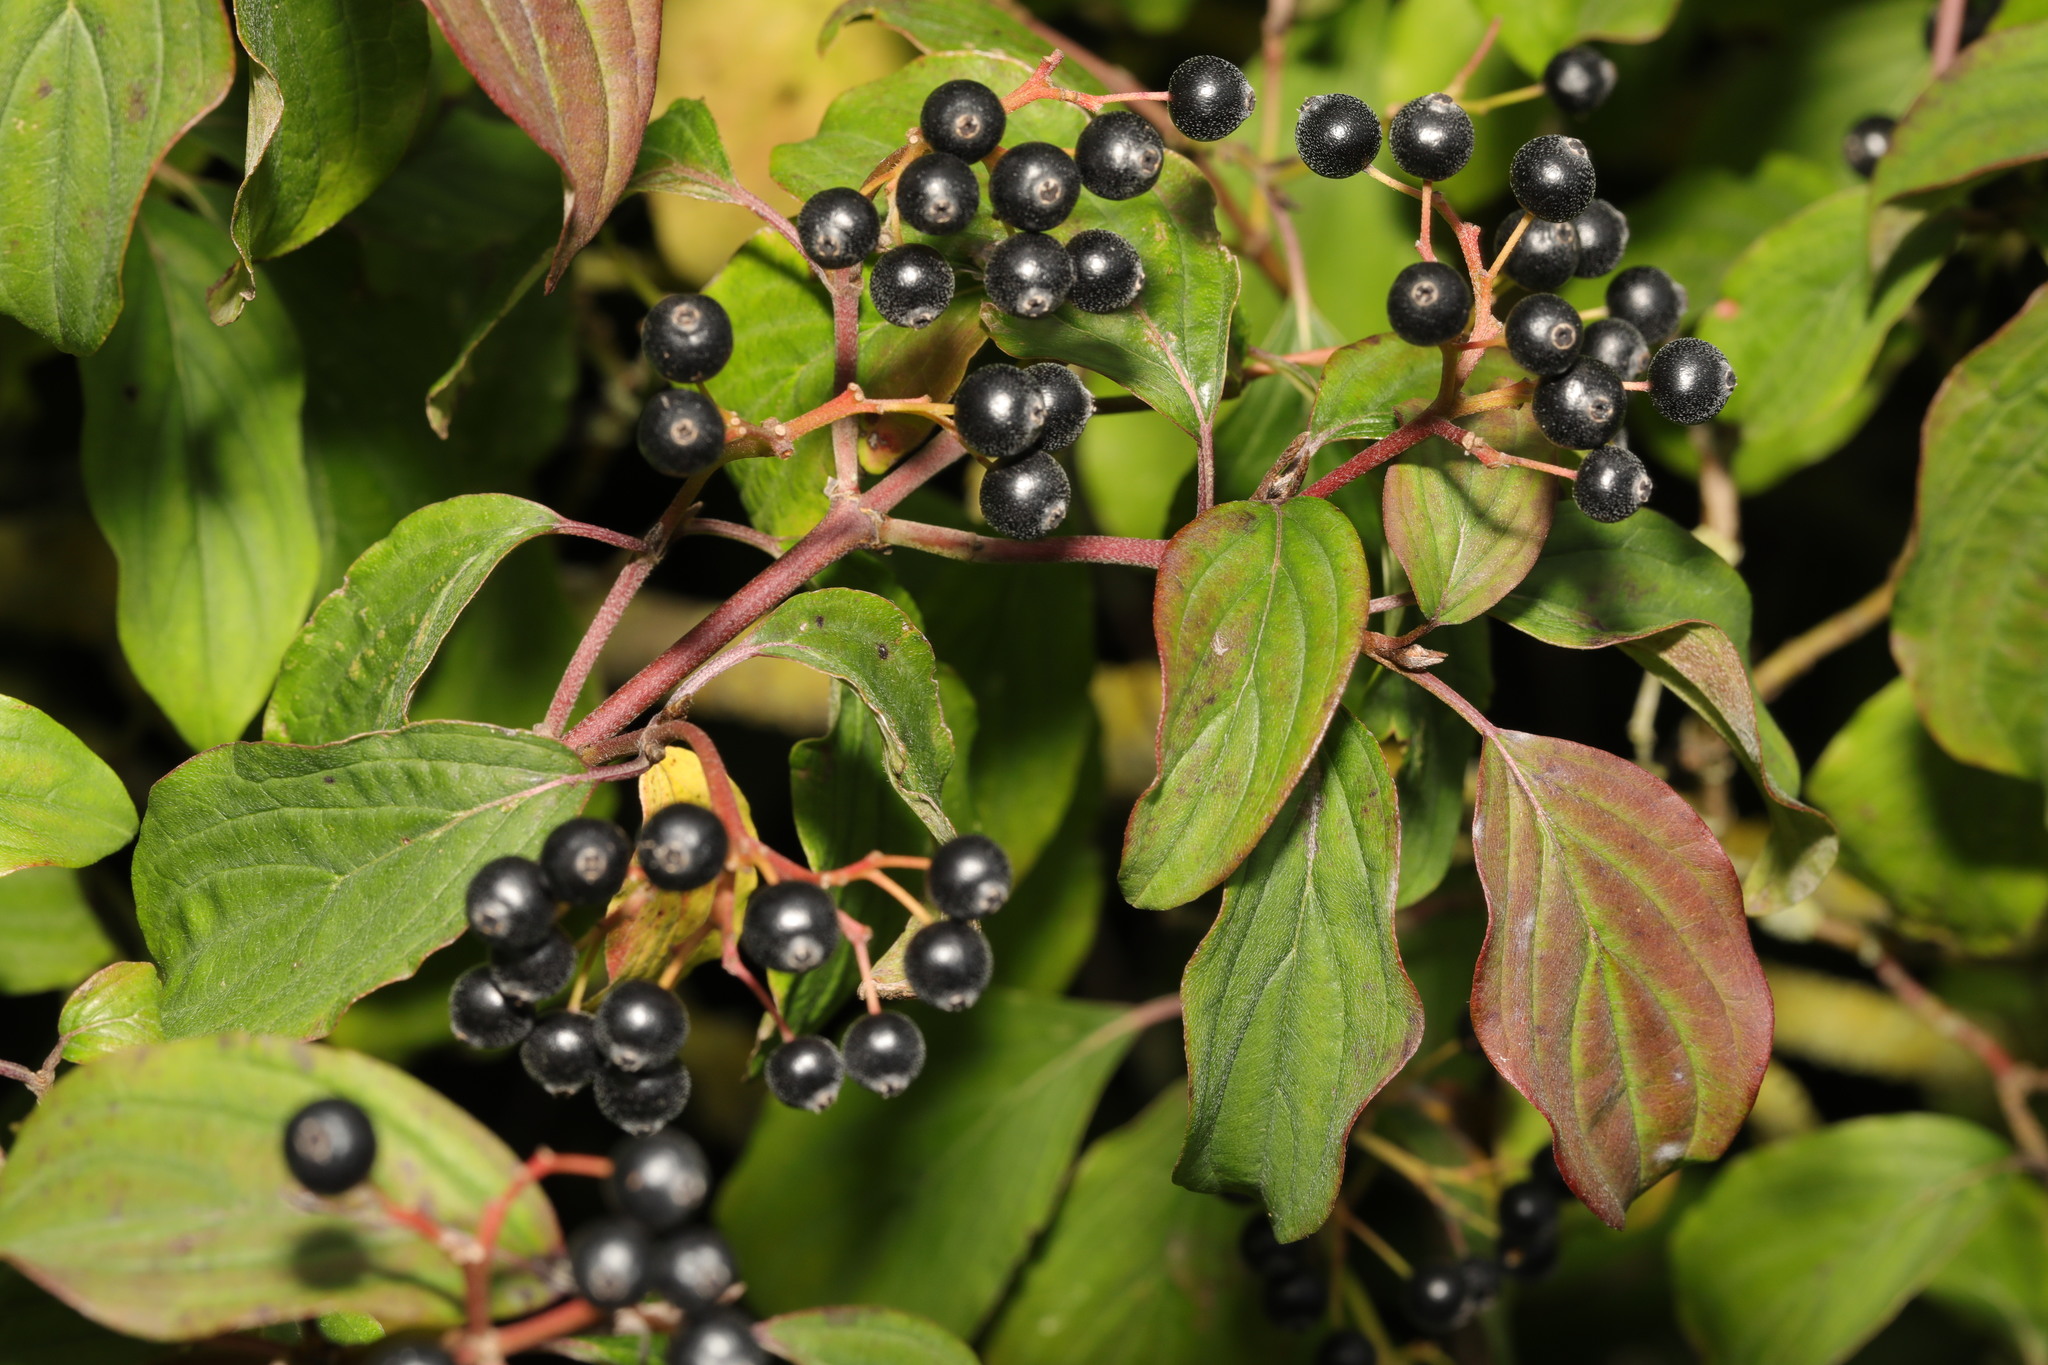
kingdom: Plantae
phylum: Tracheophyta
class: Magnoliopsida
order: Cornales
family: Cornaceae
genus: Cornus
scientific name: Cornus sanguinea
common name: Dogwood
